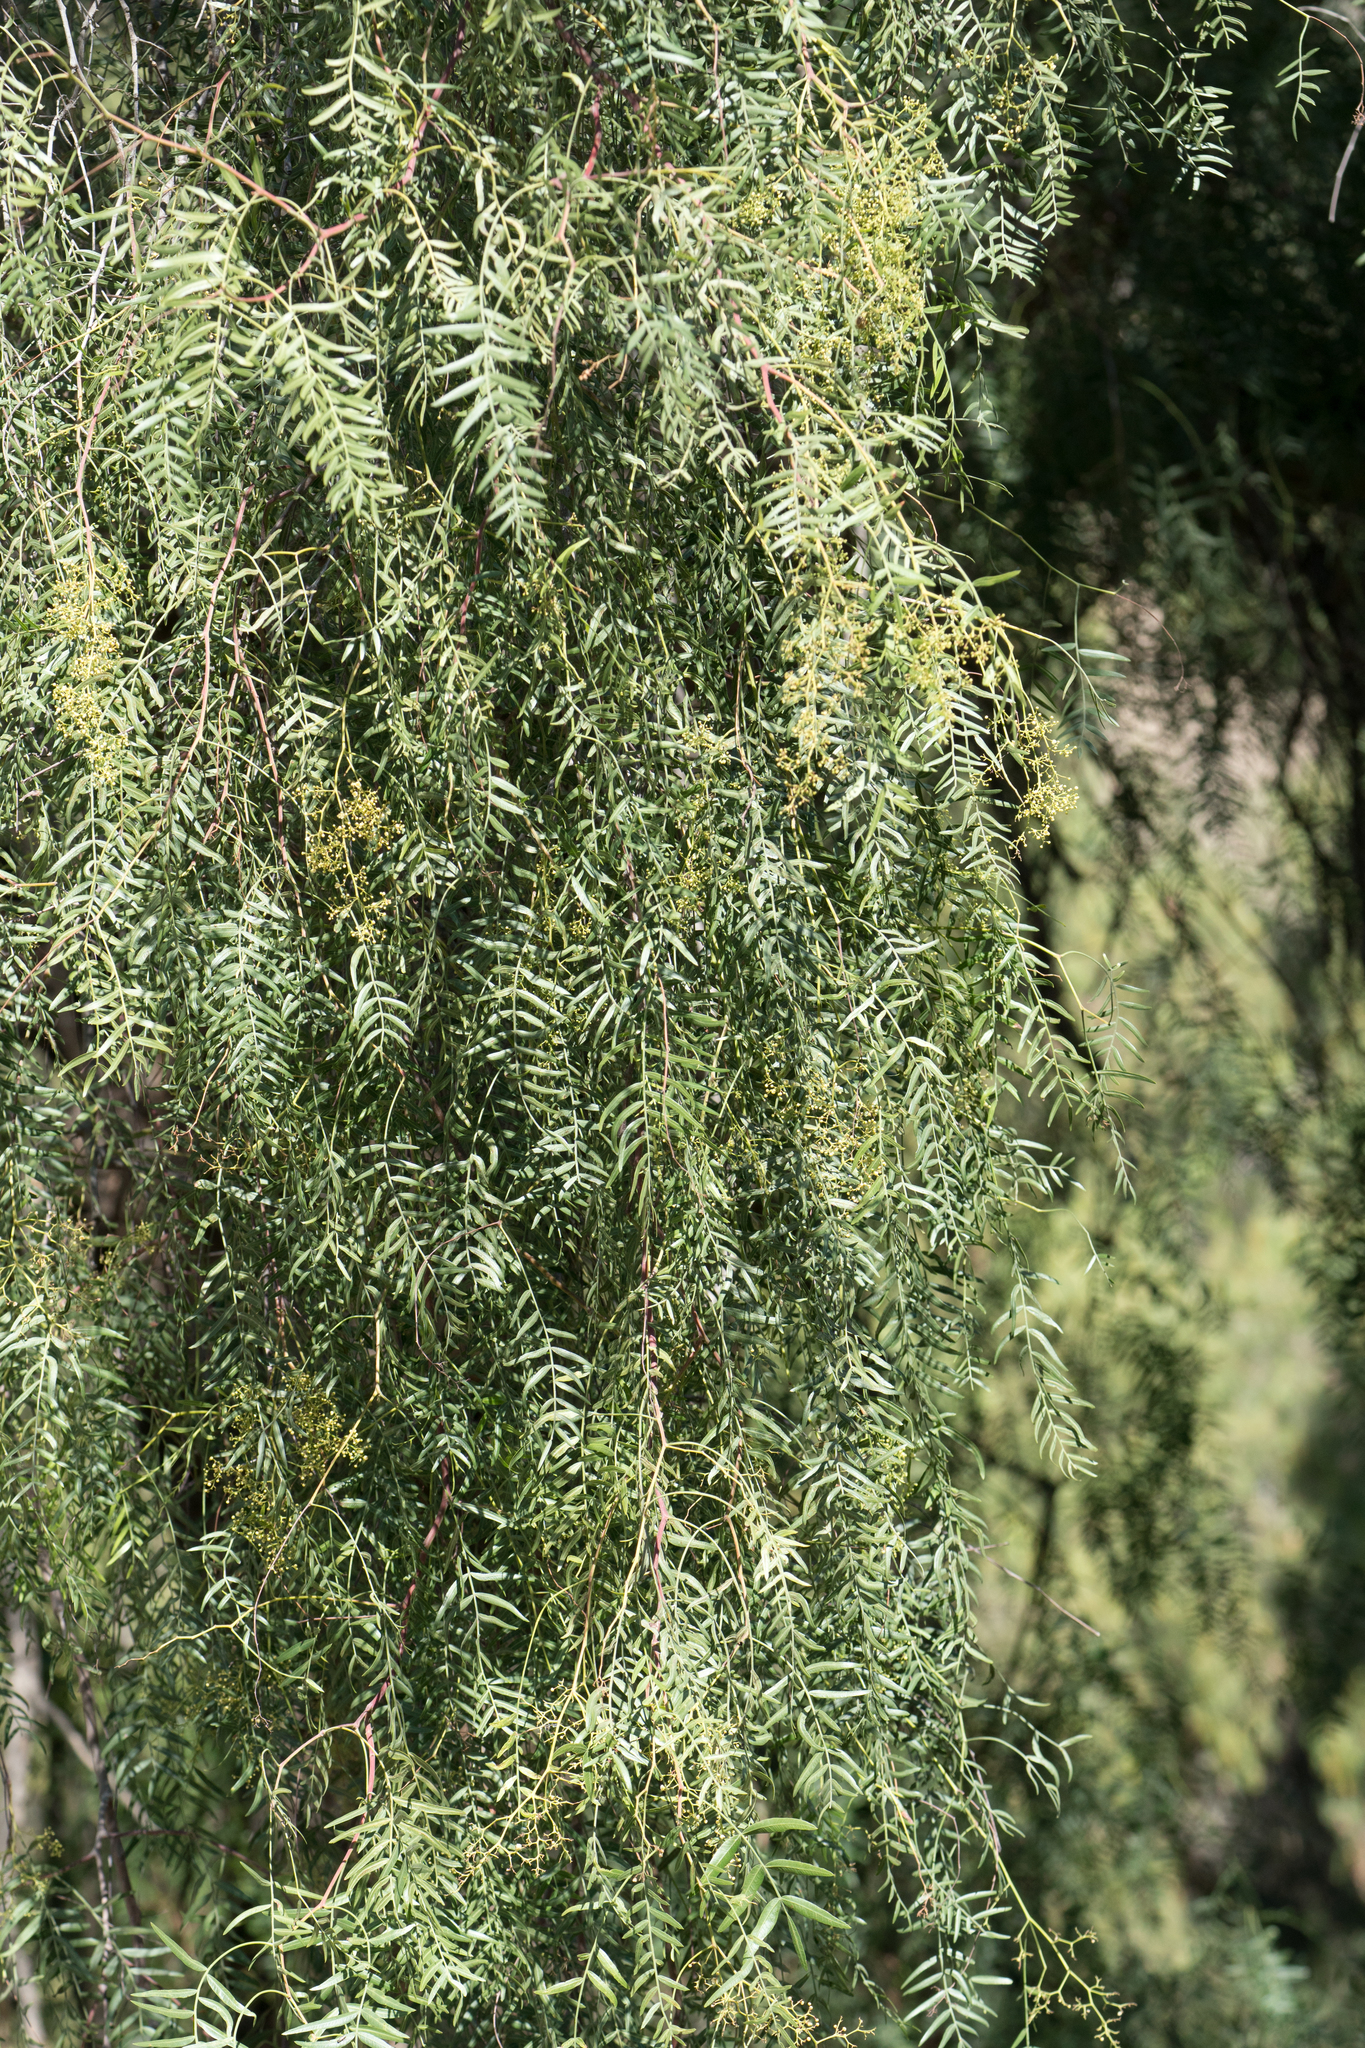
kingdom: Plantae
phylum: Tracheophyta
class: Magnoliopsida
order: Sapindales
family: Anacardiaceae
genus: Schinus
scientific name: Schinus molle
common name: Peruvian peppertree
